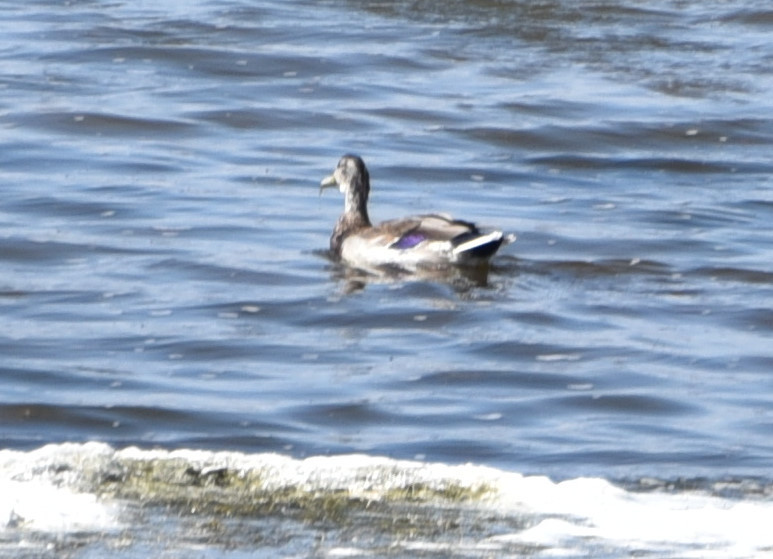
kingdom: Animalia
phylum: Chordata
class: Aves
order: Anseriformes
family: Anatidae
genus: Anas
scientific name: Anas platyrhynchos
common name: Mallard
